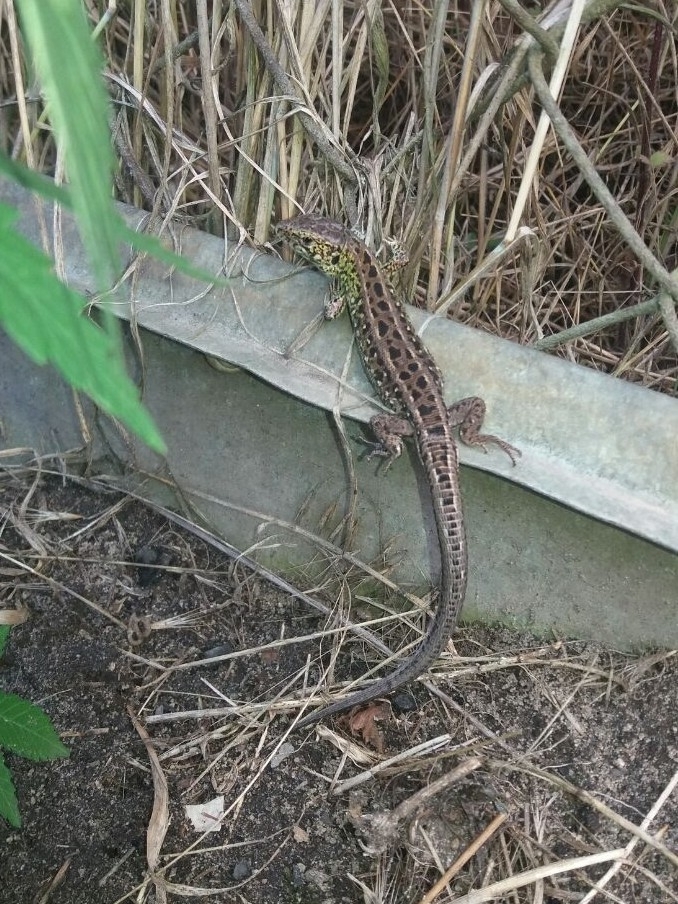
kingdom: Animalia
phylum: Chordata
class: Squamata
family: Lacertidae
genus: Lacerta
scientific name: Lacerta agilis
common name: Sand lizard
